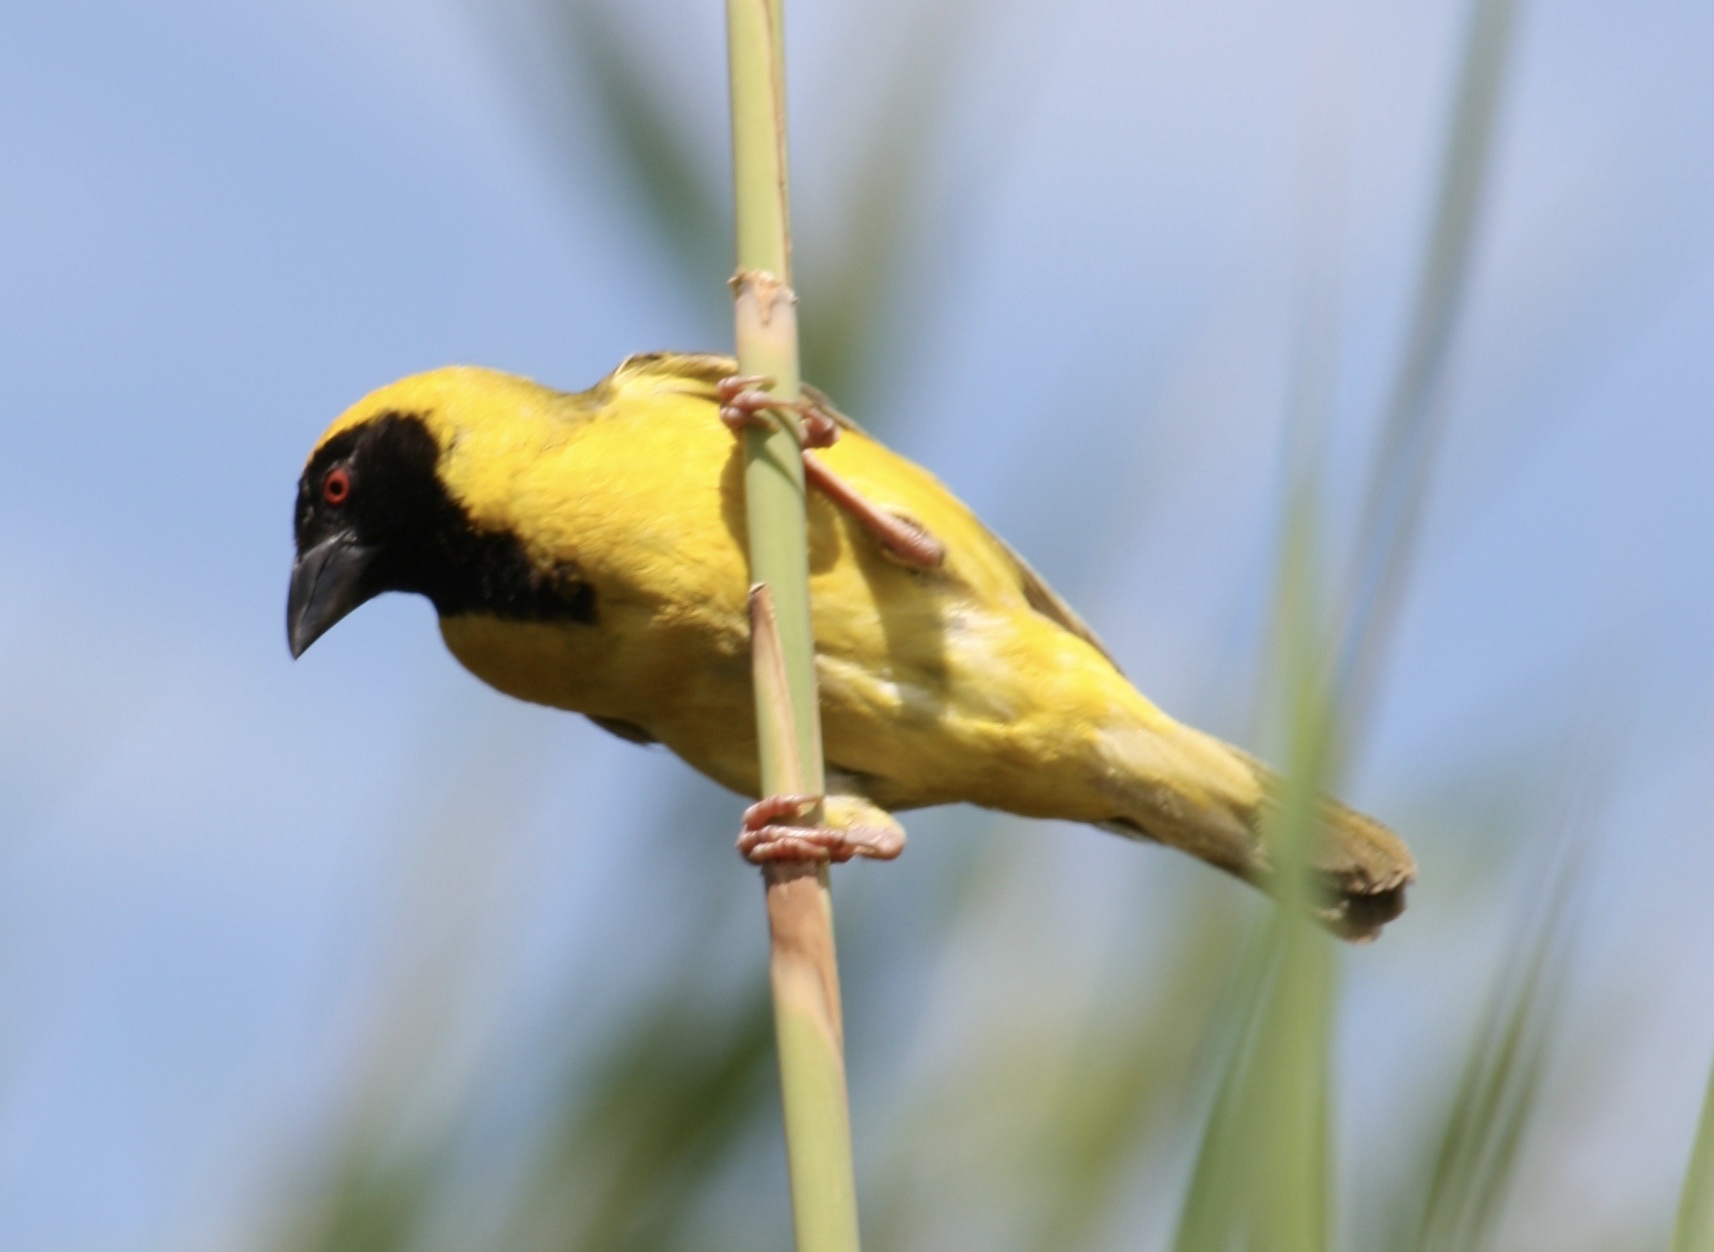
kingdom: Animalia
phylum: Chordata
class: Aves
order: Passeriformes
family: Ploceidae
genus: Ploceus
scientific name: Ploceus velatus
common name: Southern masked weaver
